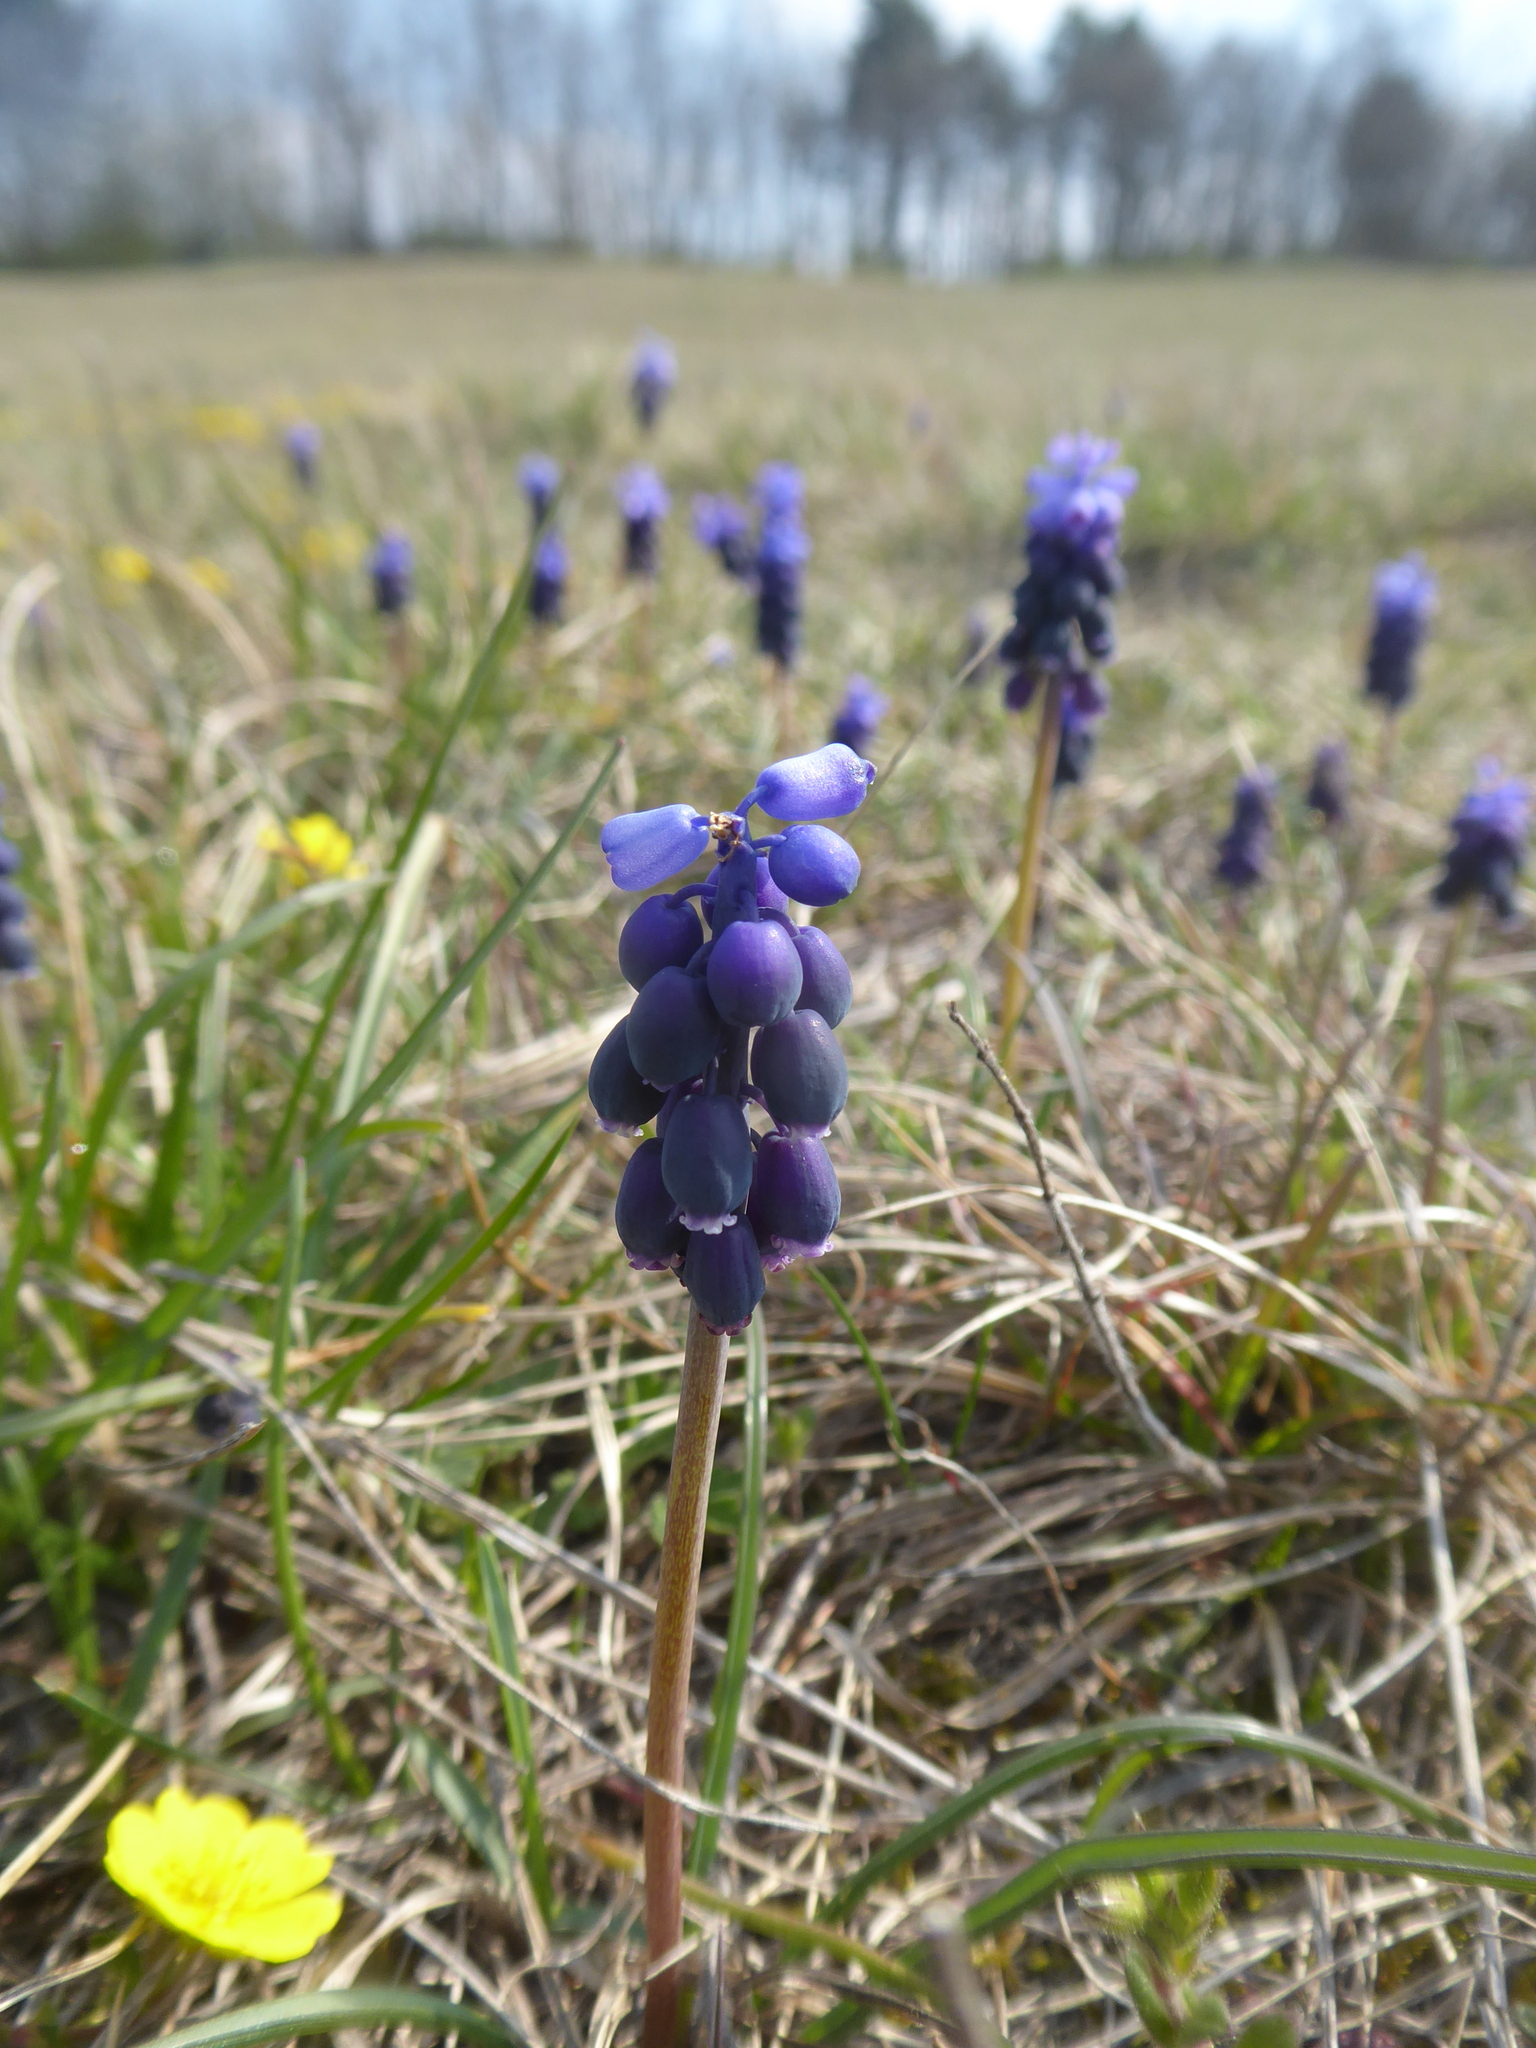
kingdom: Plantae
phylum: Tracheophyta
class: Liliopsida
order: Asparagales
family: Asparagaceae
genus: Muscari
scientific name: Muscari neglectum
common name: Grape-hyacinth
